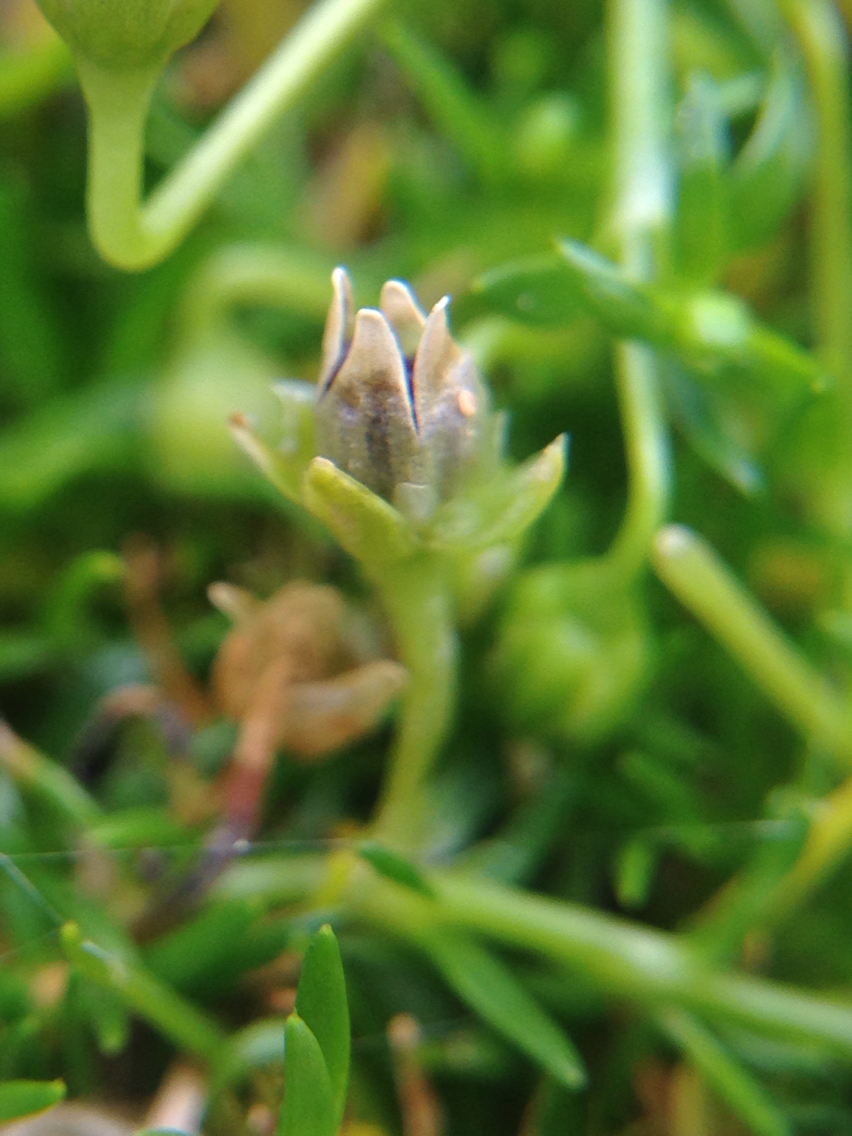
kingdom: Plantae
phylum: Tracheophyta
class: Magnoliopsida
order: Caryophyllales
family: Caryophyllaceae
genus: Sagina
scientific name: Sagina procumbens
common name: Procumbent pearlwort
